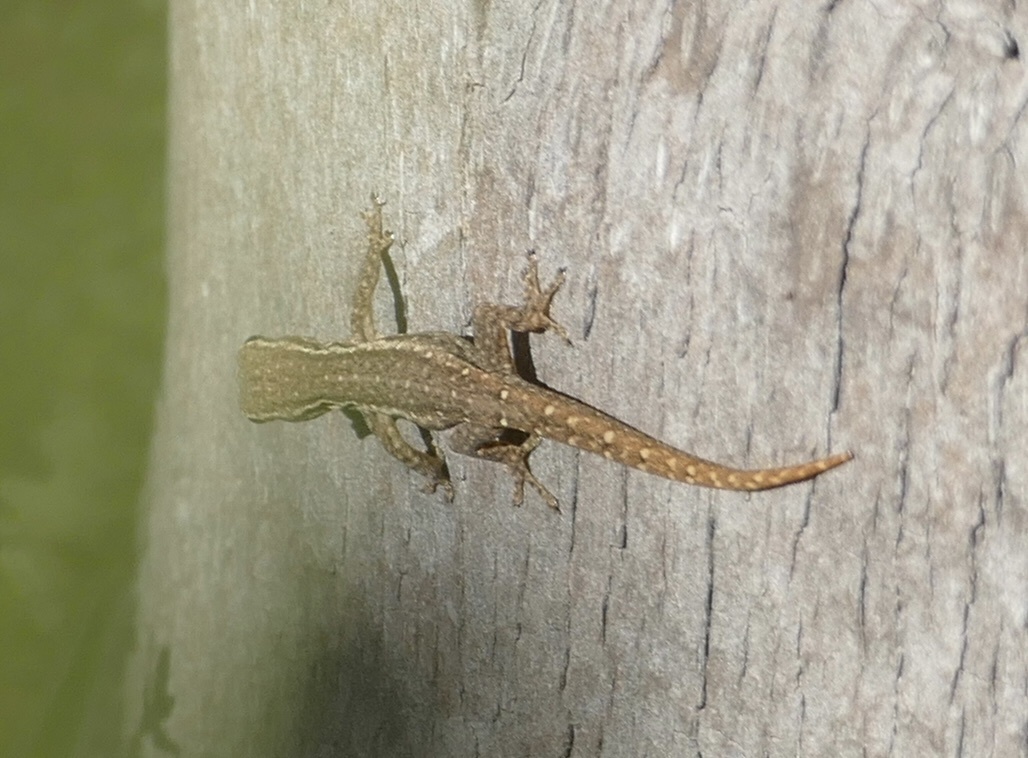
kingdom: Animalia
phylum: Chordata
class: Squamata
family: Gekkonidae
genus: Lygodactylus
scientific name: Lygodactylus capensis
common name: Cape dwarf gecko
